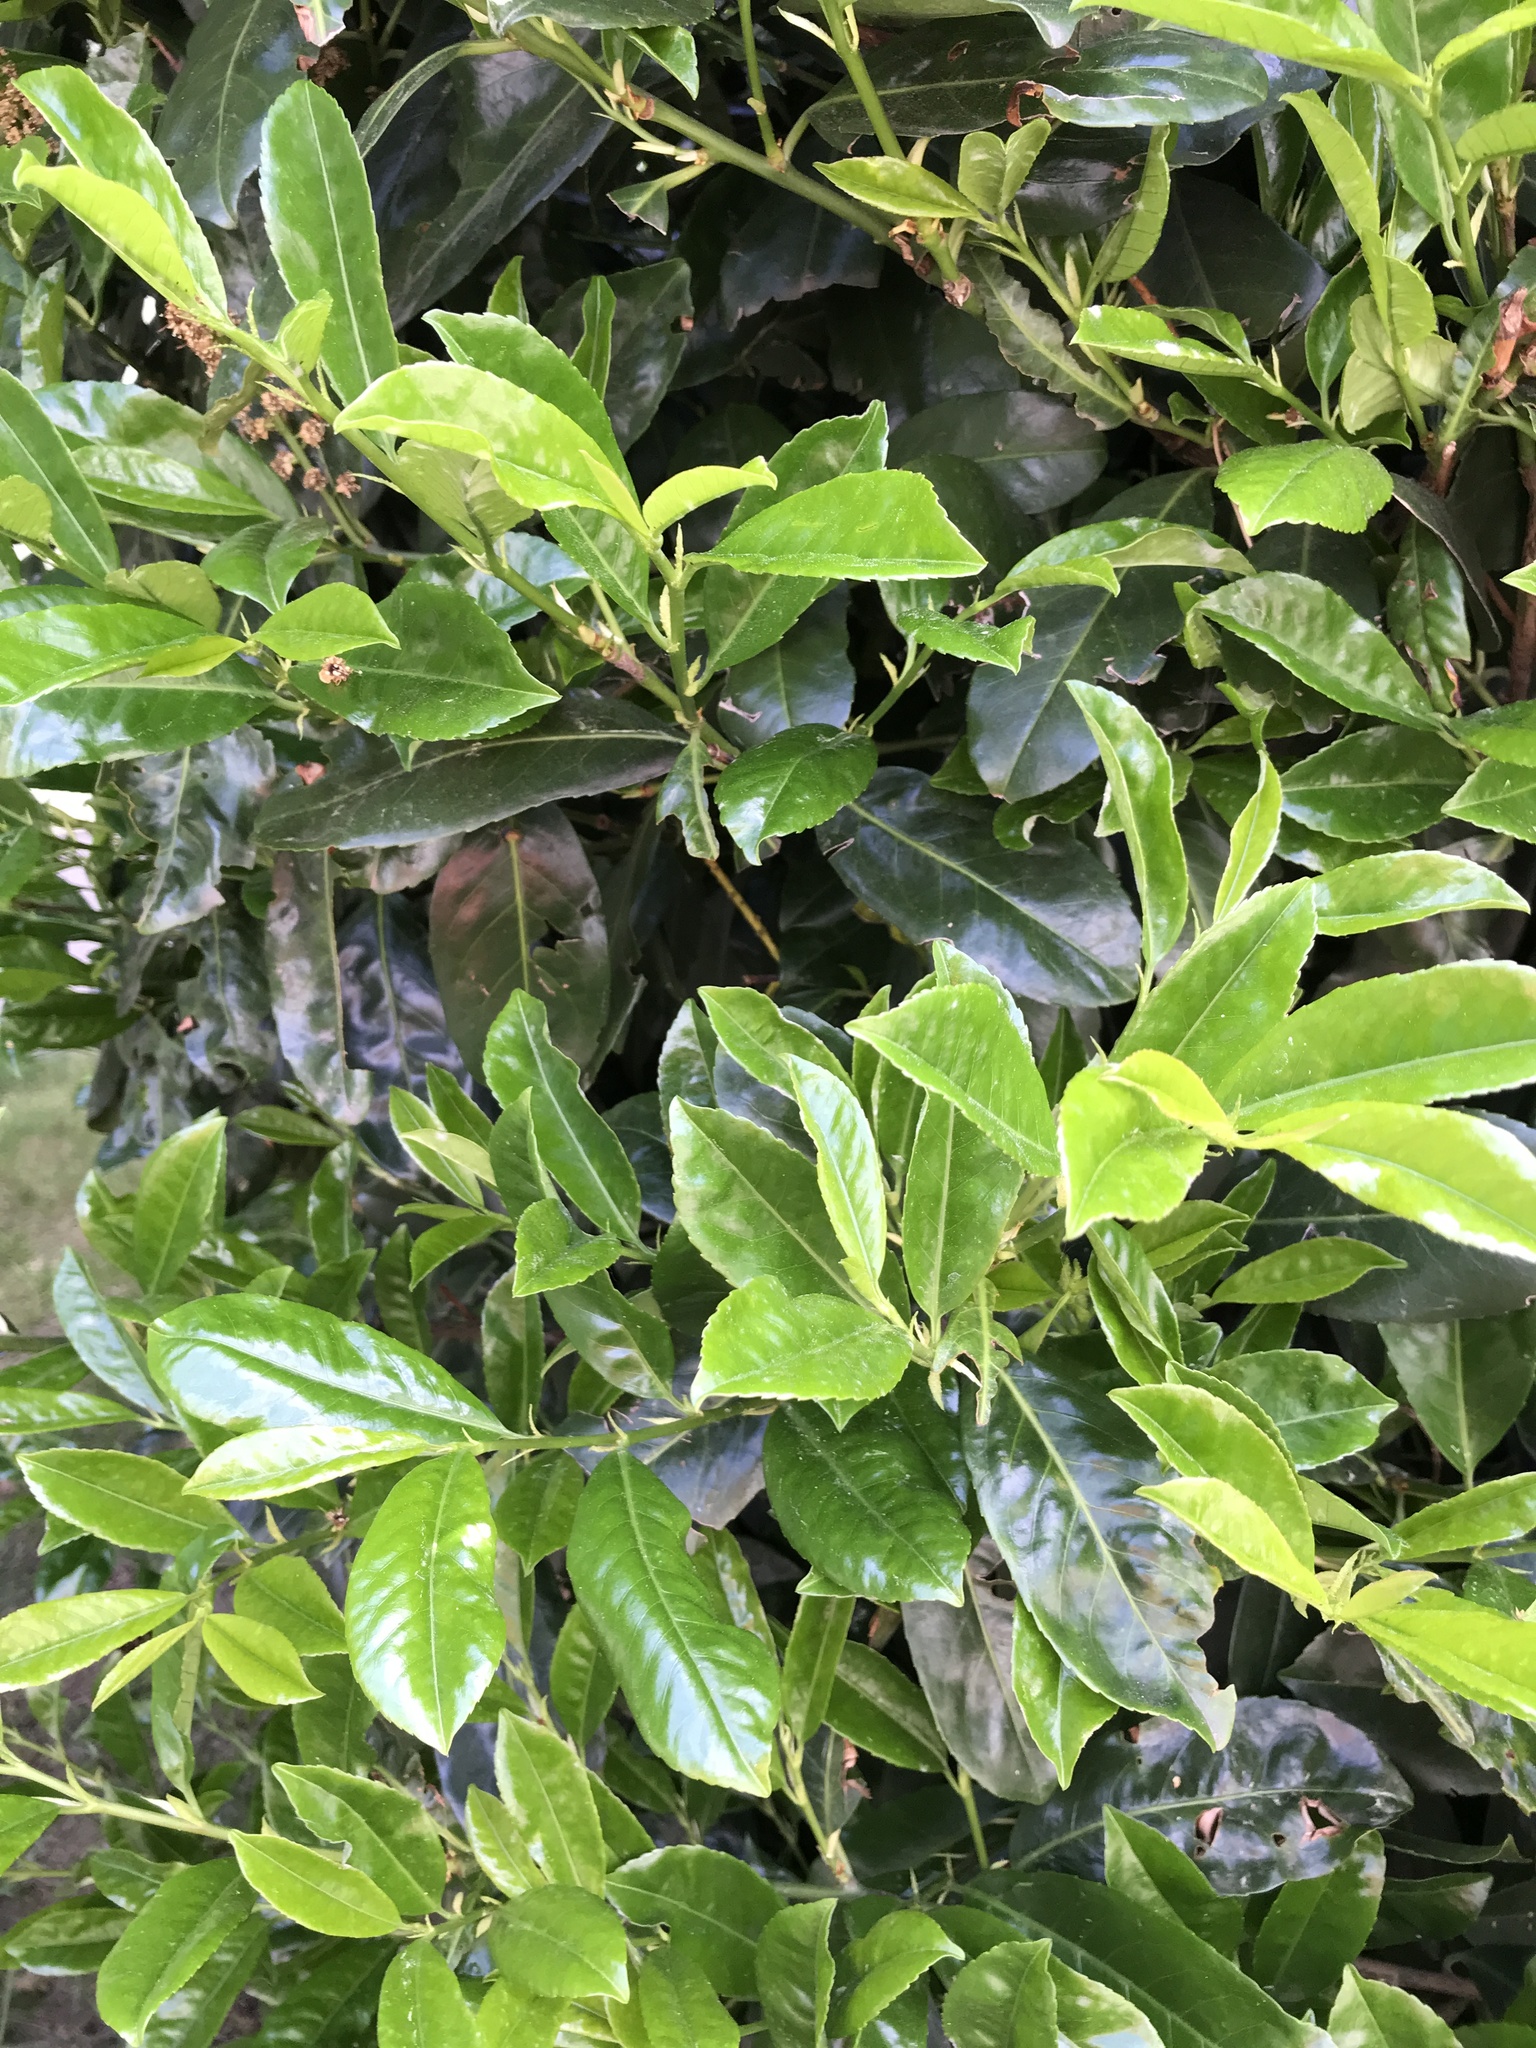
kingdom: Plantae
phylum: Tracheophyta
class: Magnoliopsida
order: Rosales
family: Rosaceae
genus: Prunus
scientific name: Prunus laurocerasus
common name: Cherry laurel
